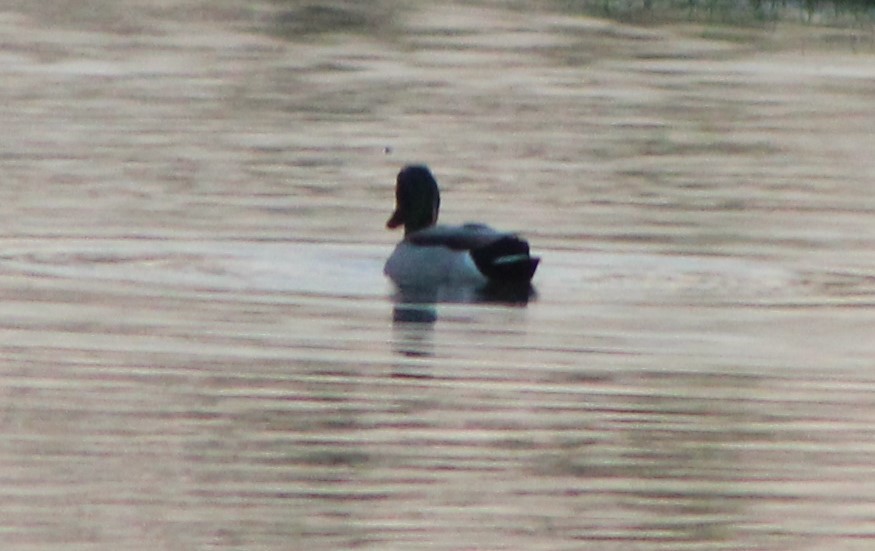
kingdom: Animalia
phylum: Chordata
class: Aves
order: Anseriformes
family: Anatidae
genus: Anas
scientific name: Anas platyrhynchos
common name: Mallard
